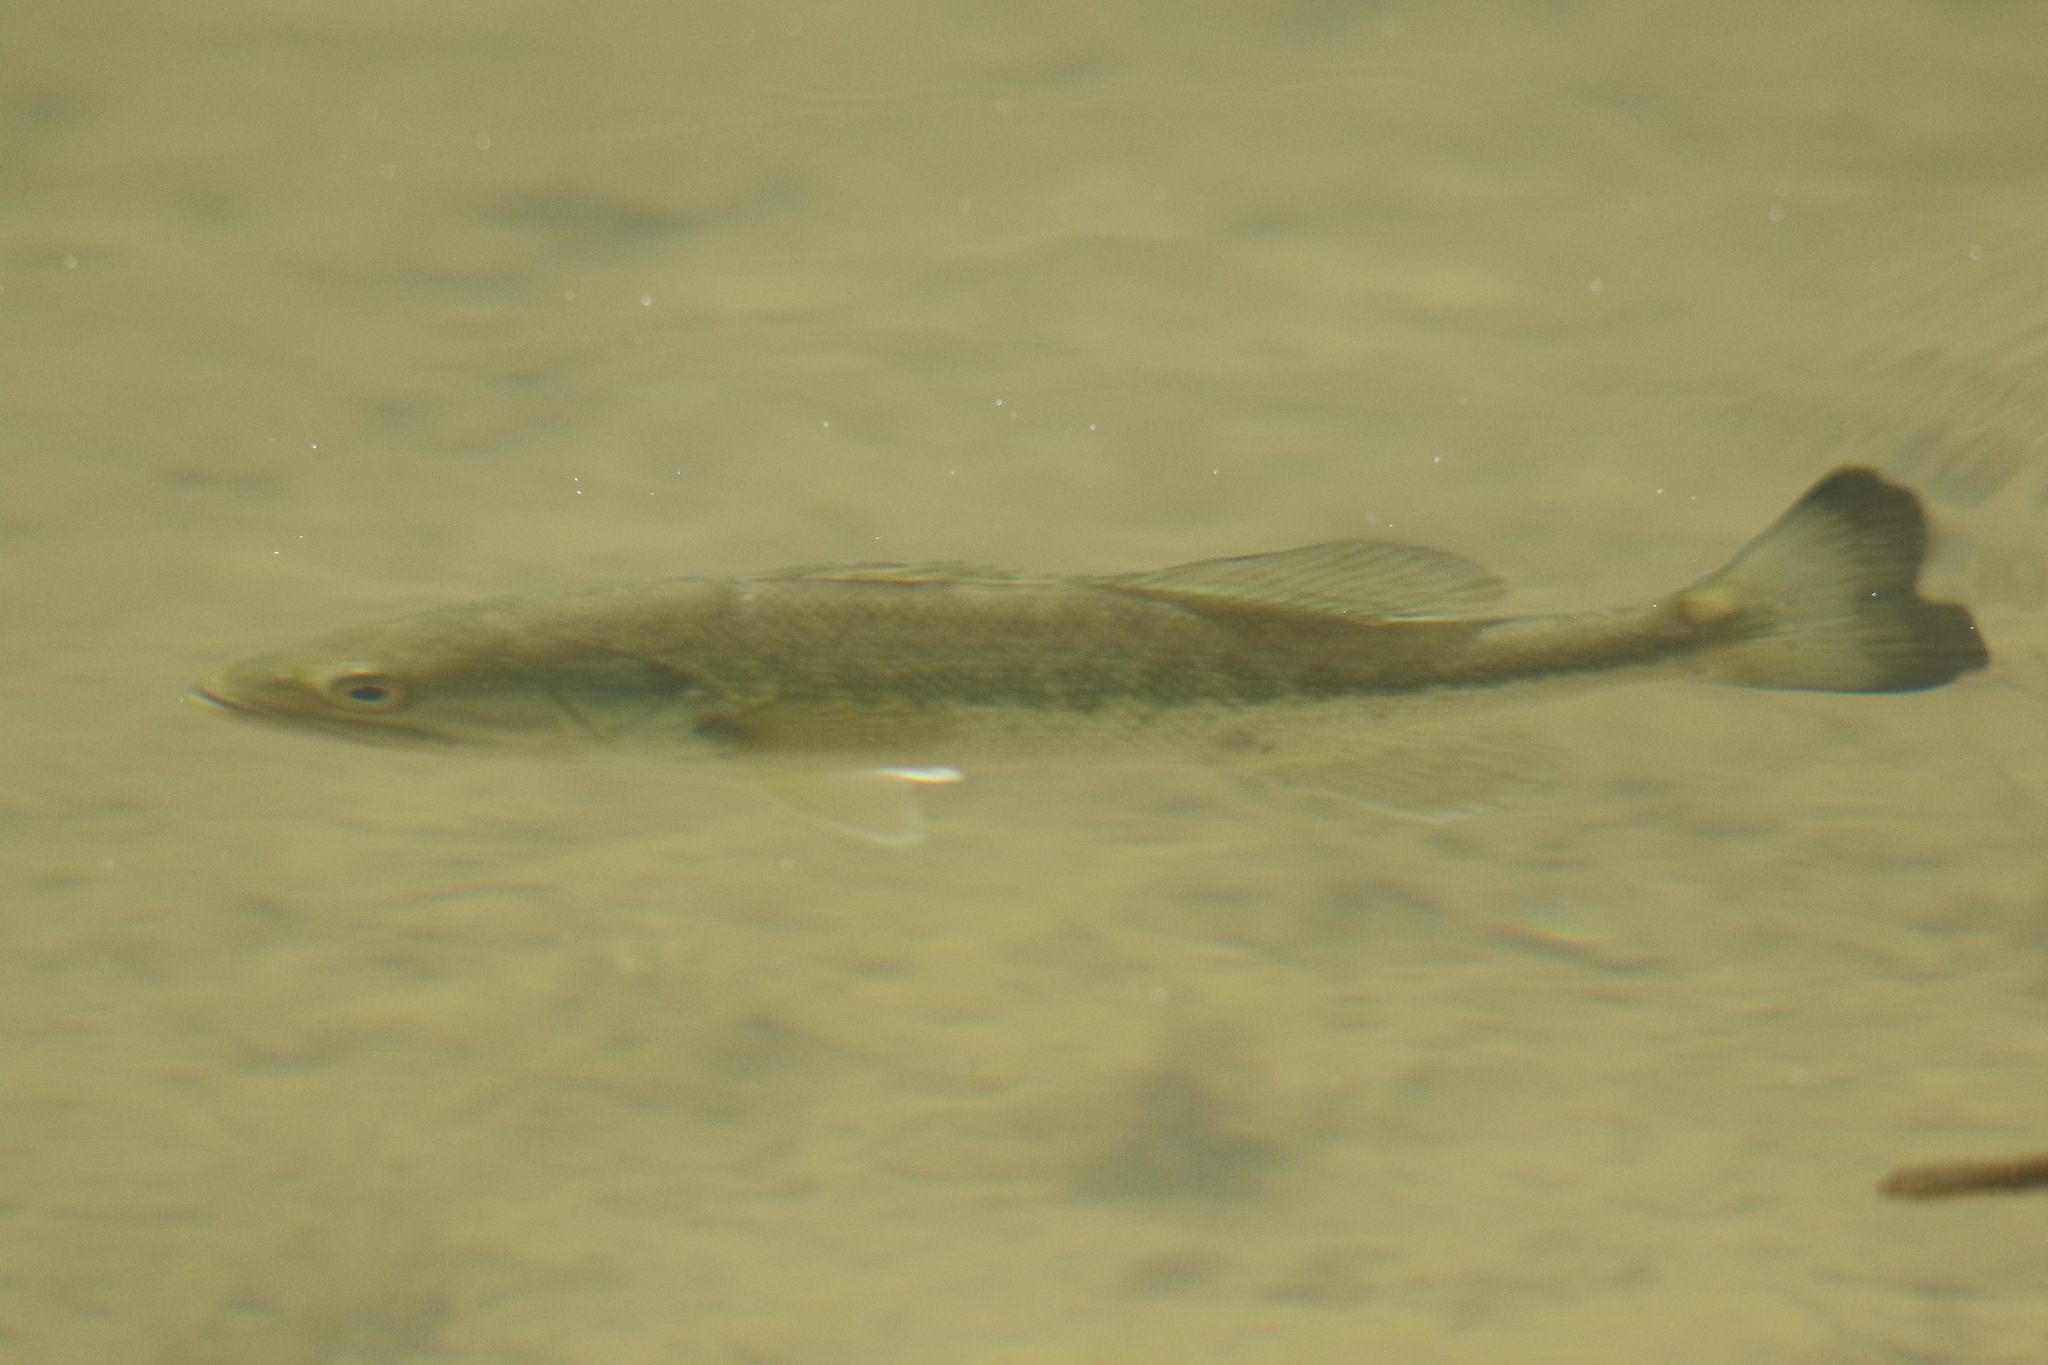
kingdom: Animalia
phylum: Chordata
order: Perciformes
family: Centrarchidae
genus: Micropterus
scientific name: Micropterus
